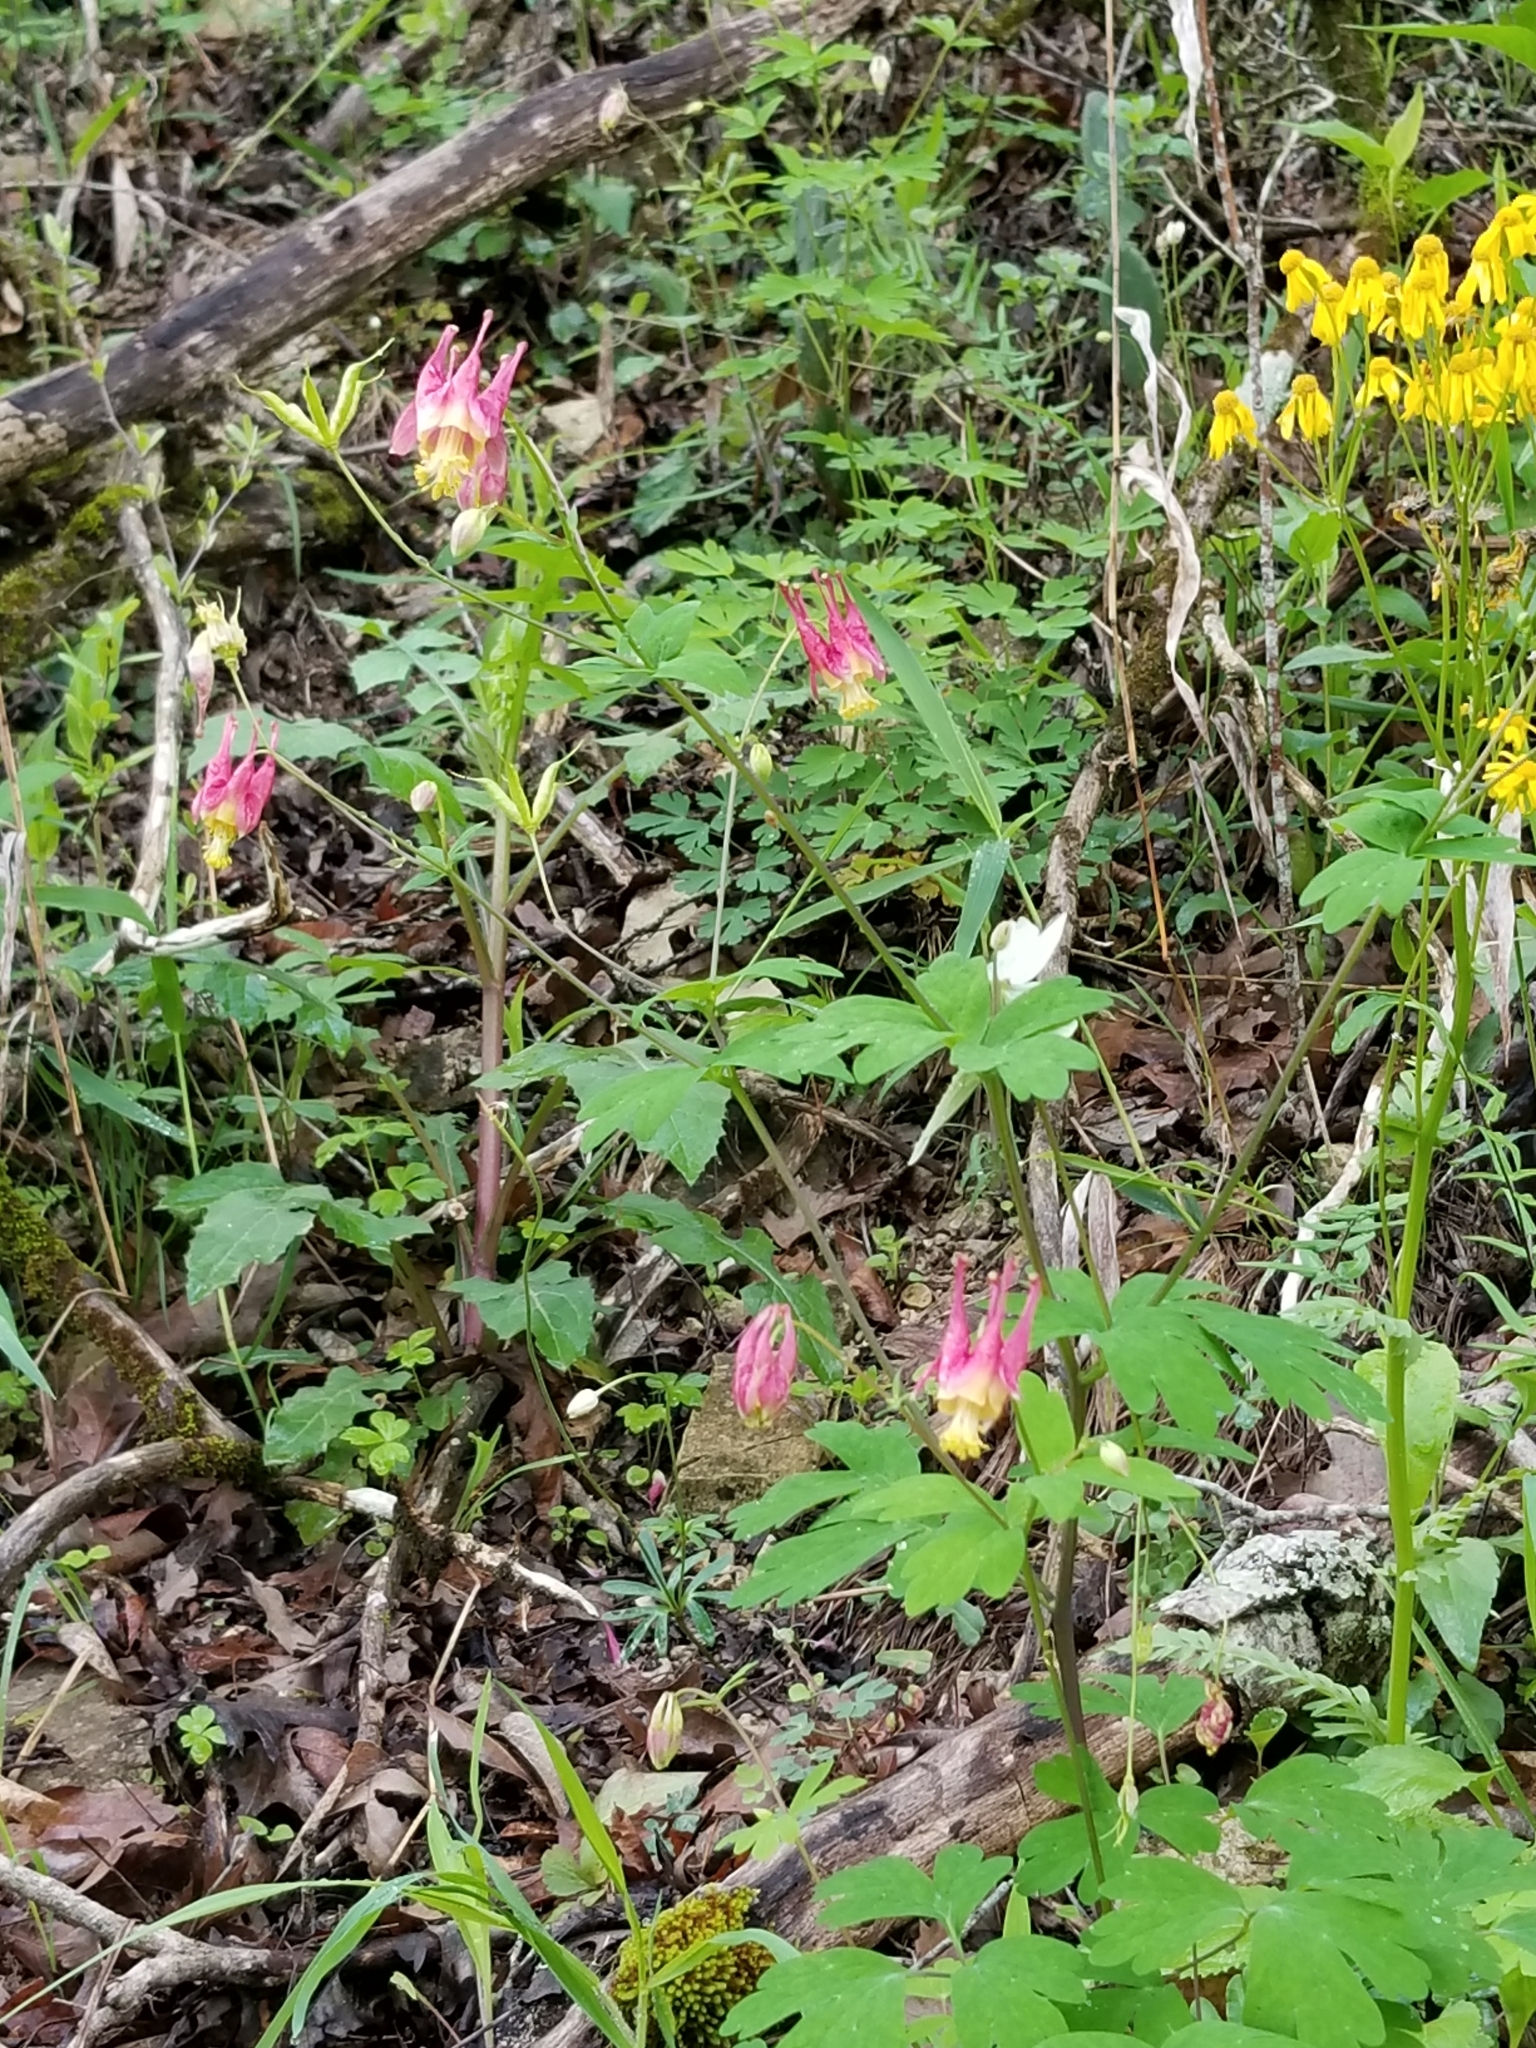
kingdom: Plantae
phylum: Tracheophyta
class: Magnoliopsida
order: Ranunculales
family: Ranunculaceae
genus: Aquilegia
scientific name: Aquilegia canadensis
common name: American columbine
